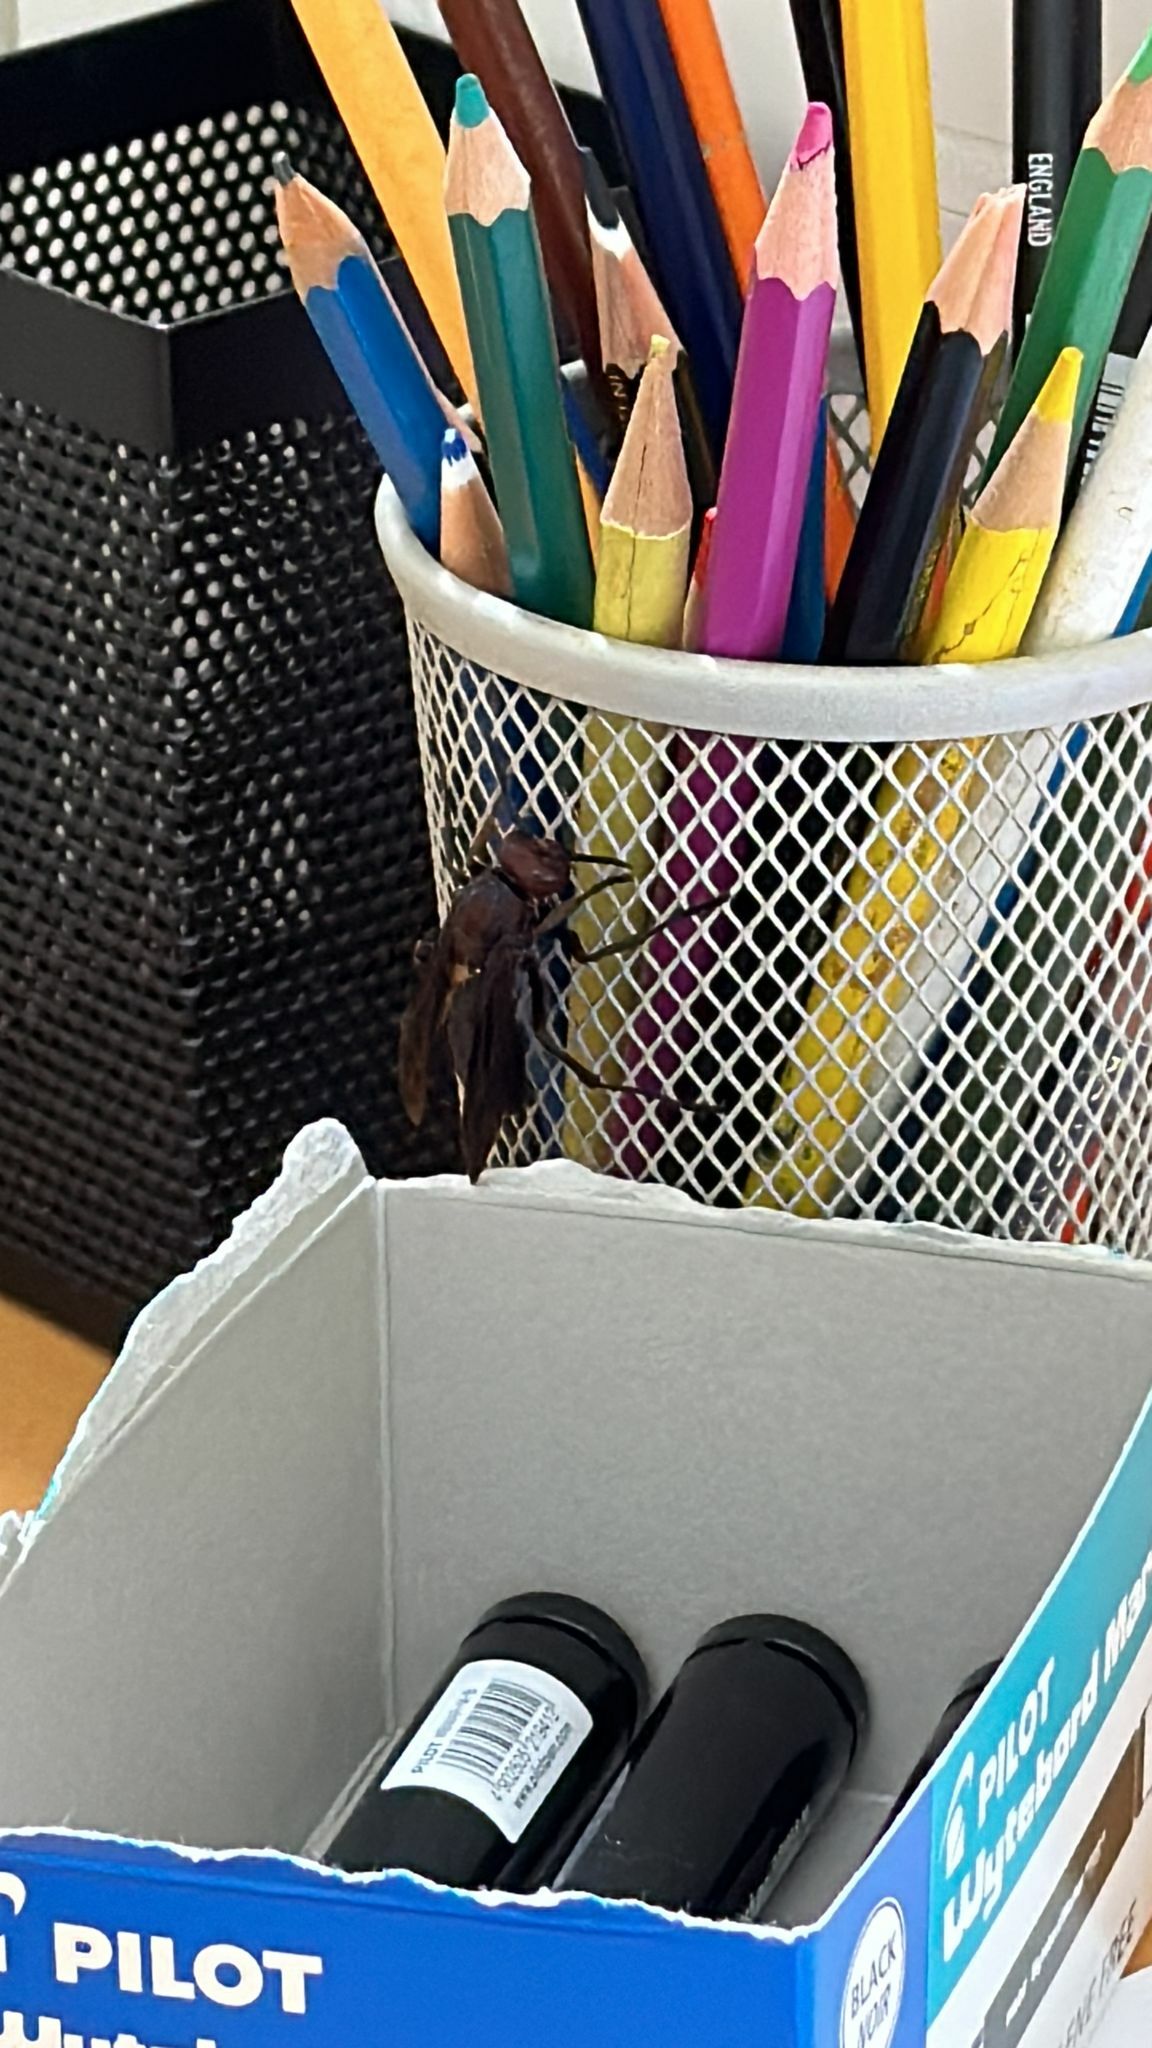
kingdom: Animalia
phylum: Arthropoda
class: Insecta
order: Hymenoptera
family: Eumenidae
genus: Polistes
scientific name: Polistes gigas
